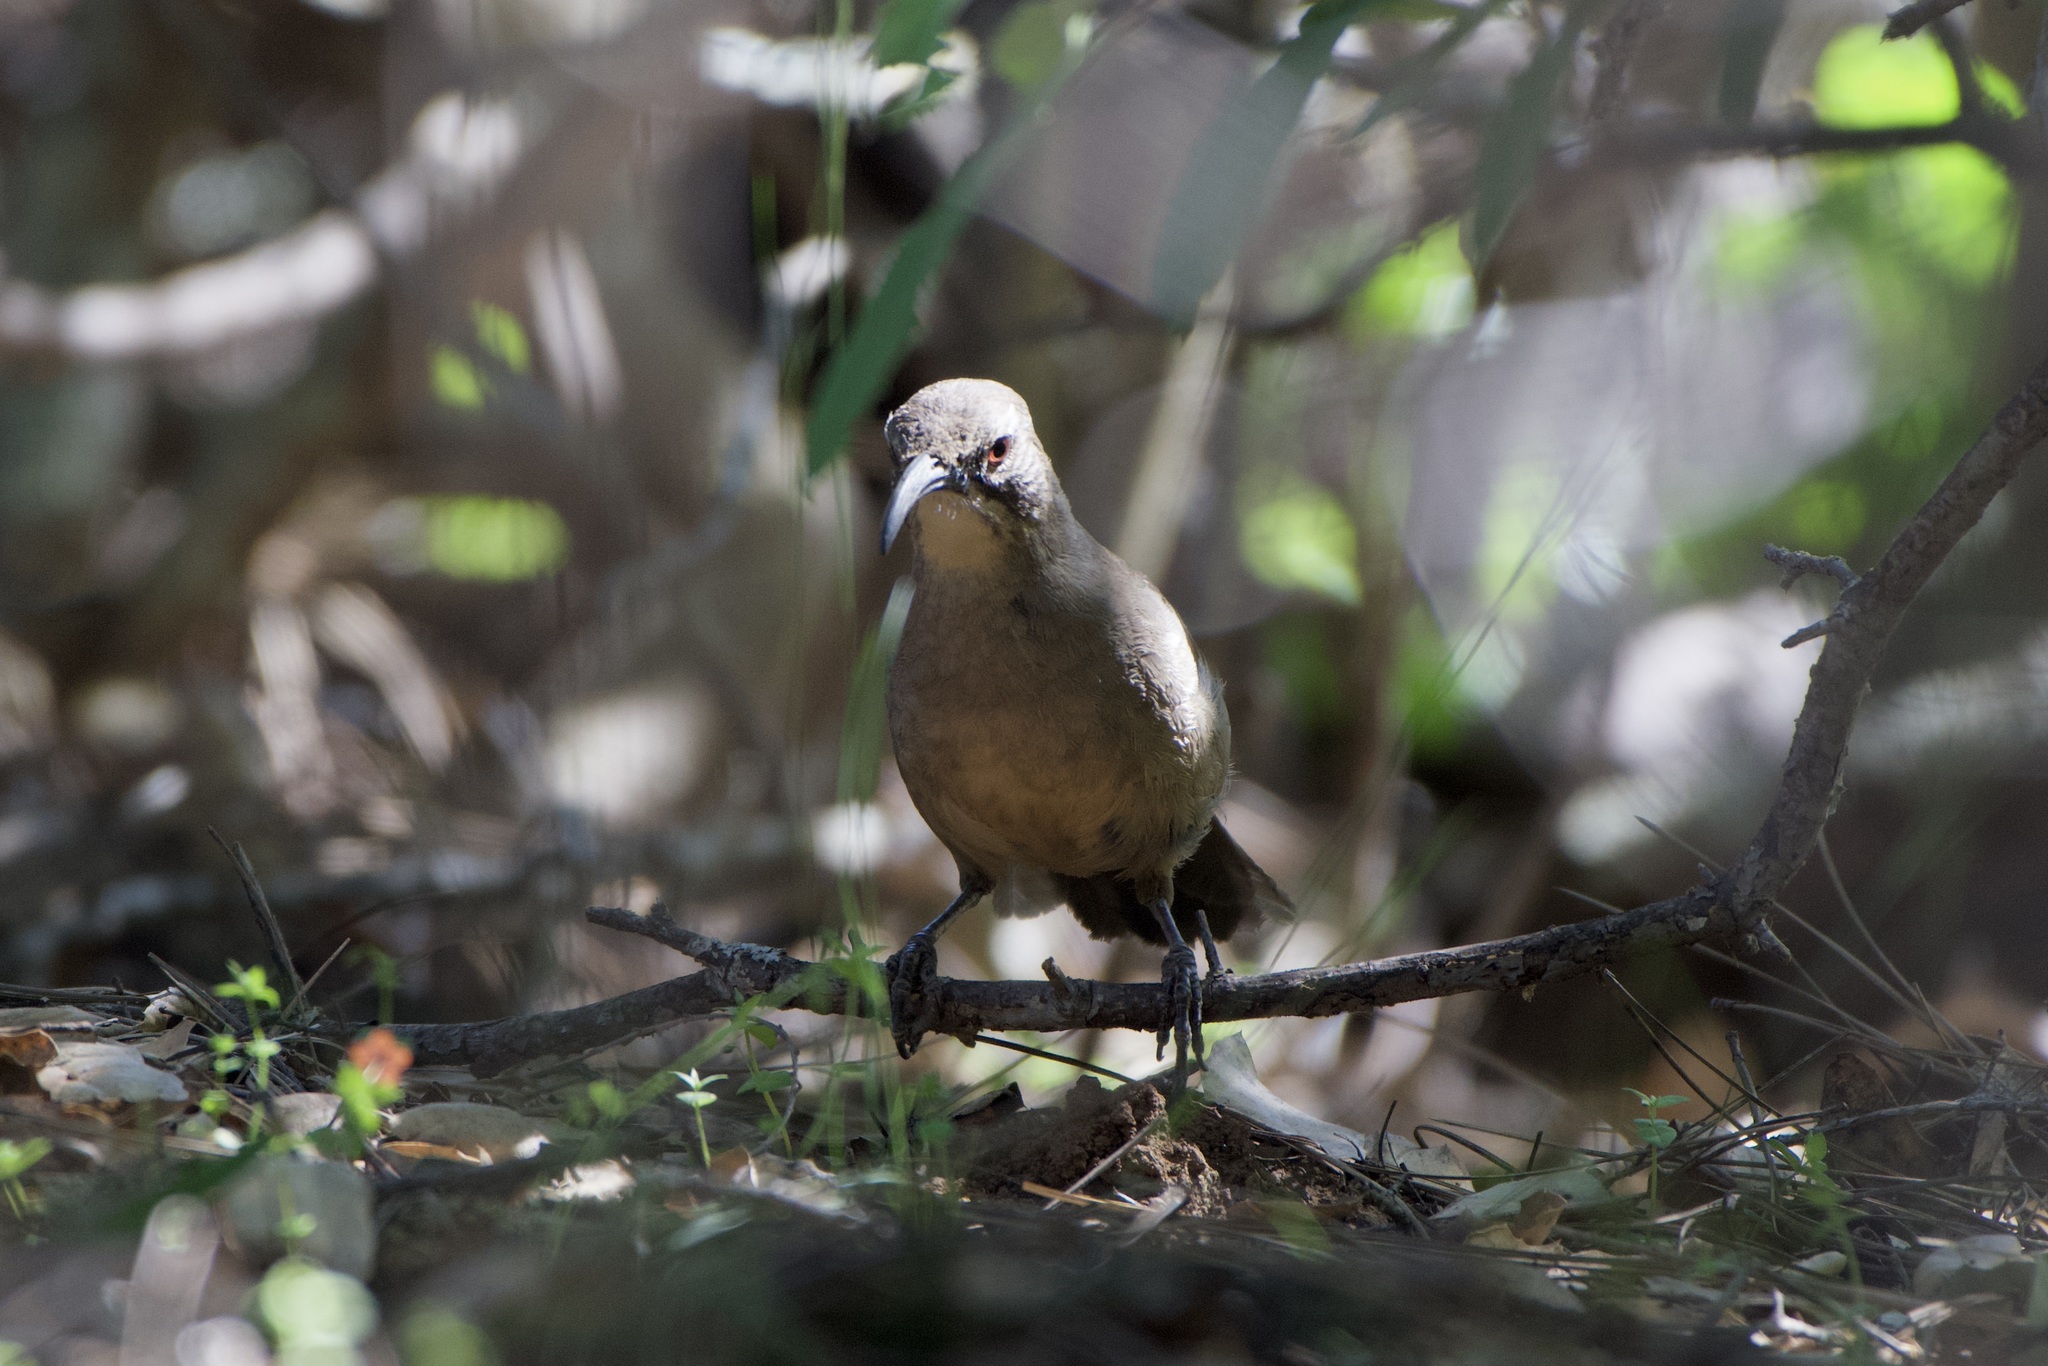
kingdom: Animalia
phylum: Chordata
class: Aves
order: Passeriformes
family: Mimidae
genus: Toxostoma
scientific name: Toxostoma redivivum
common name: California thrasher
